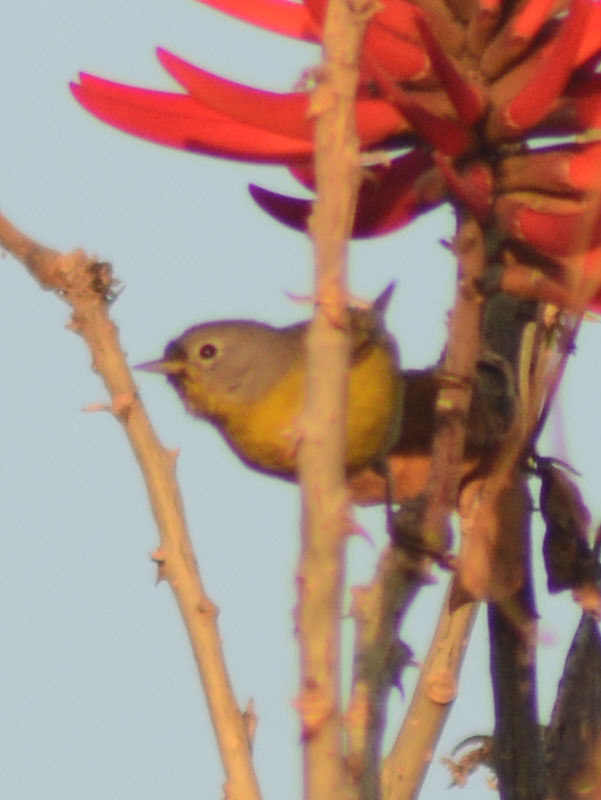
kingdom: Animalia
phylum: Chordata
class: Aves
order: Passeriformes
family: Parulidae
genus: Leiothlypis
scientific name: Leiothlypis ruficapilla
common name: Nashville warbler
